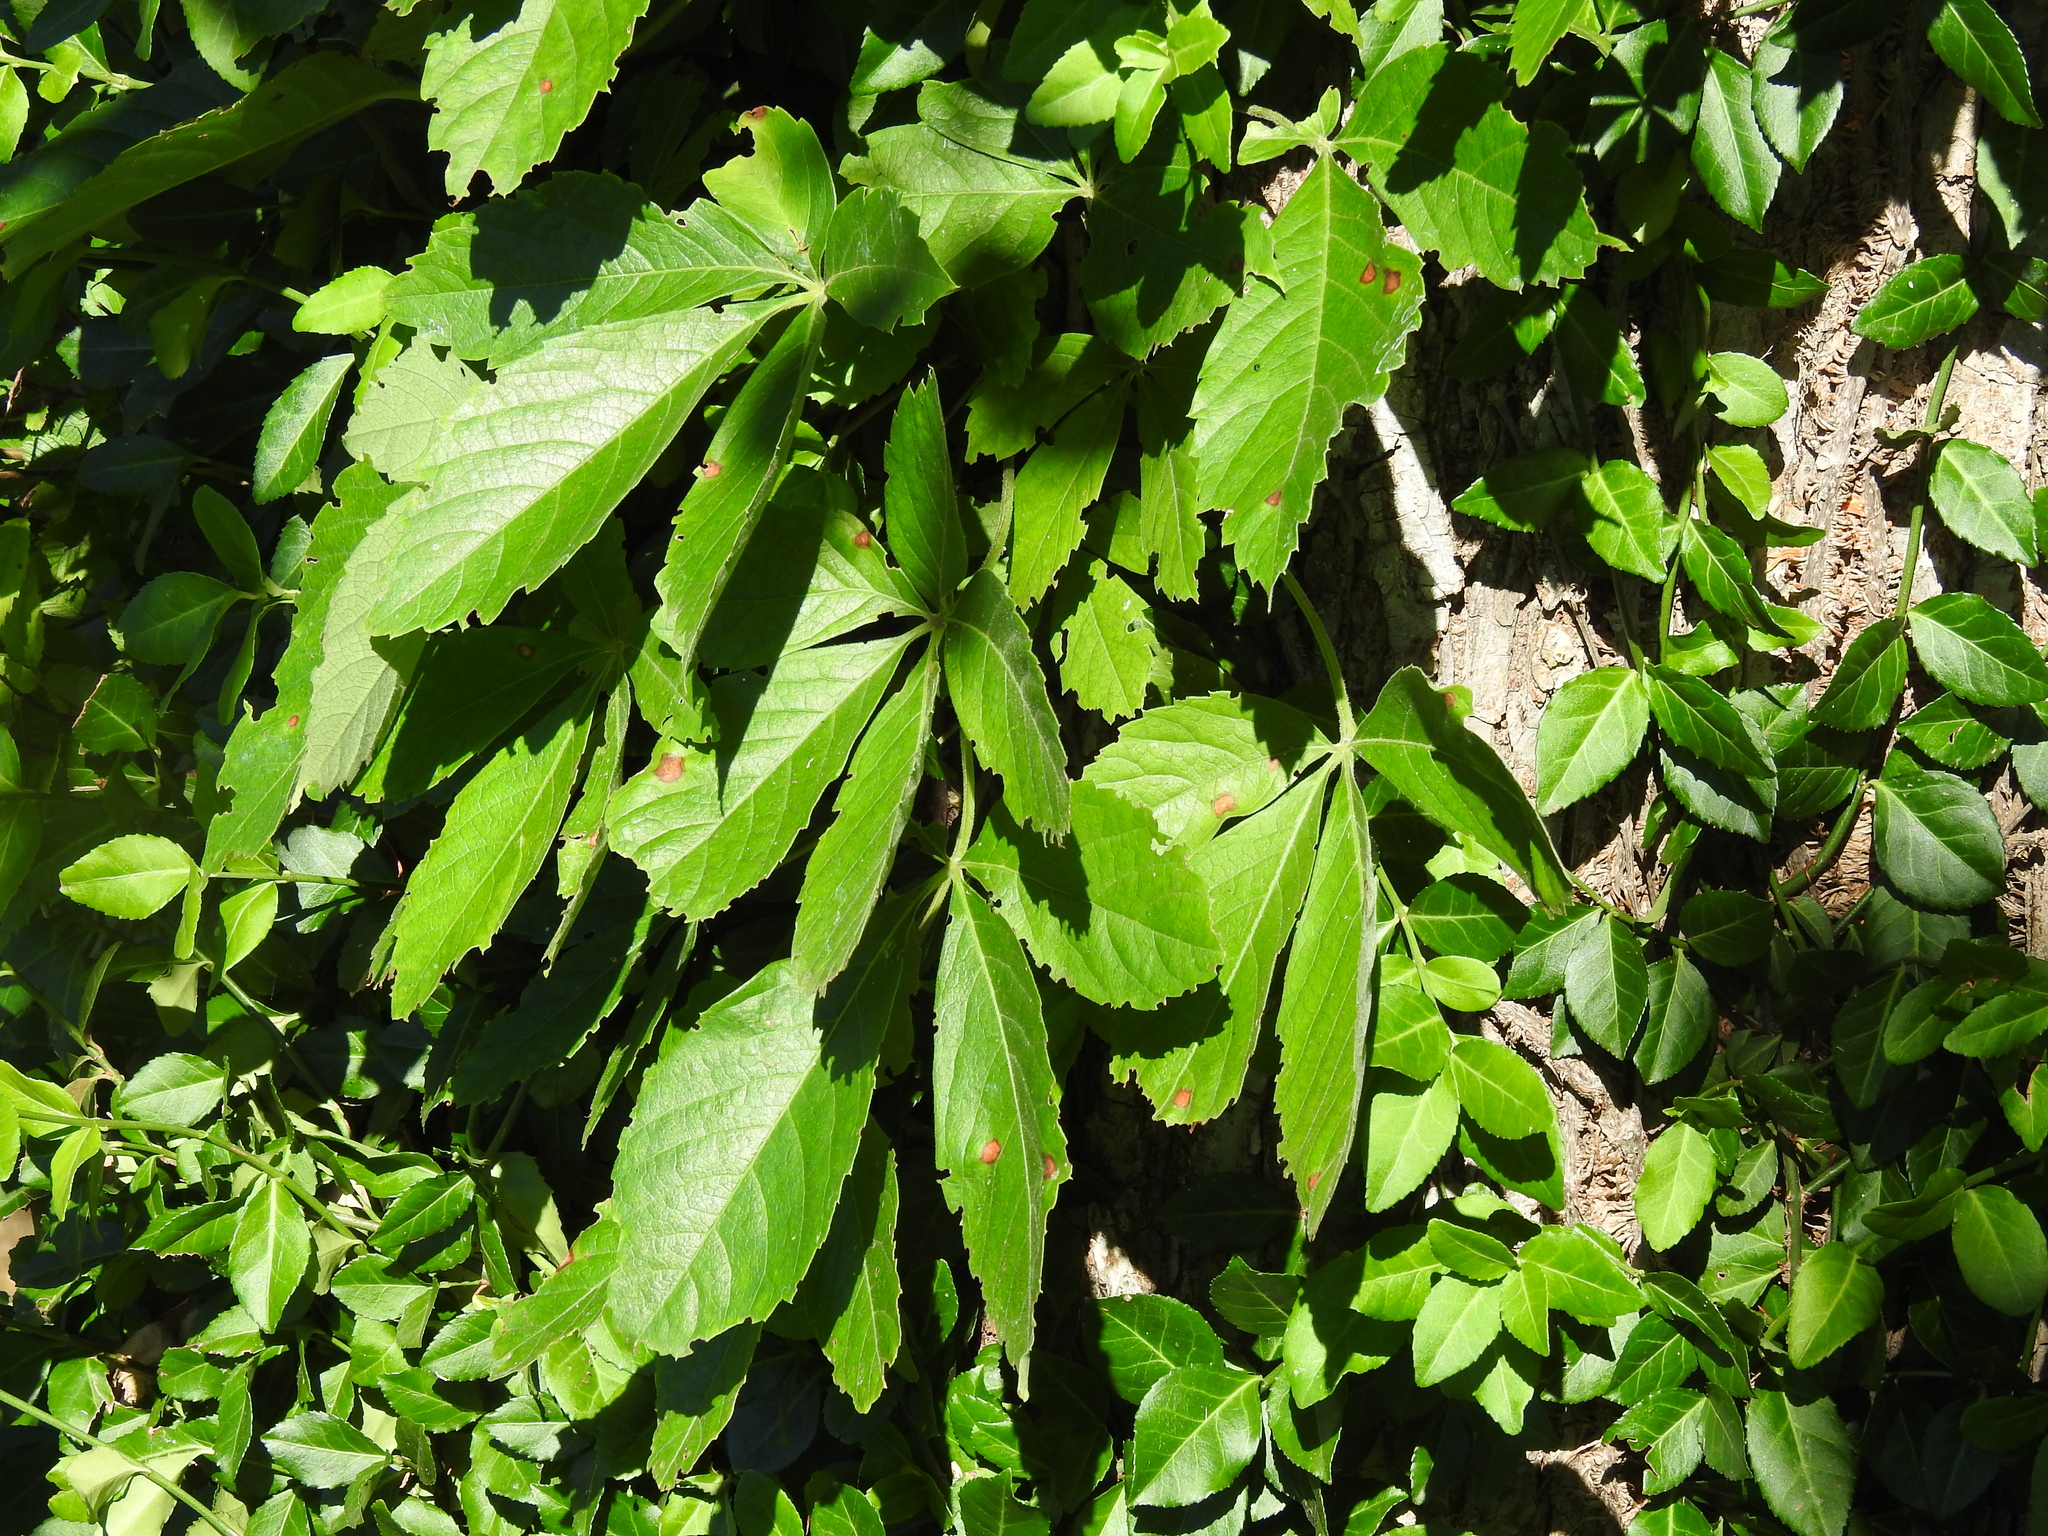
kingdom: Plantae
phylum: Tracheophyta
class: Magnoliopsida
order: Vitales
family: Vitaceae
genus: Parthenocissus
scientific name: Parthenocissus quinquefolia
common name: Virginia-creeper
